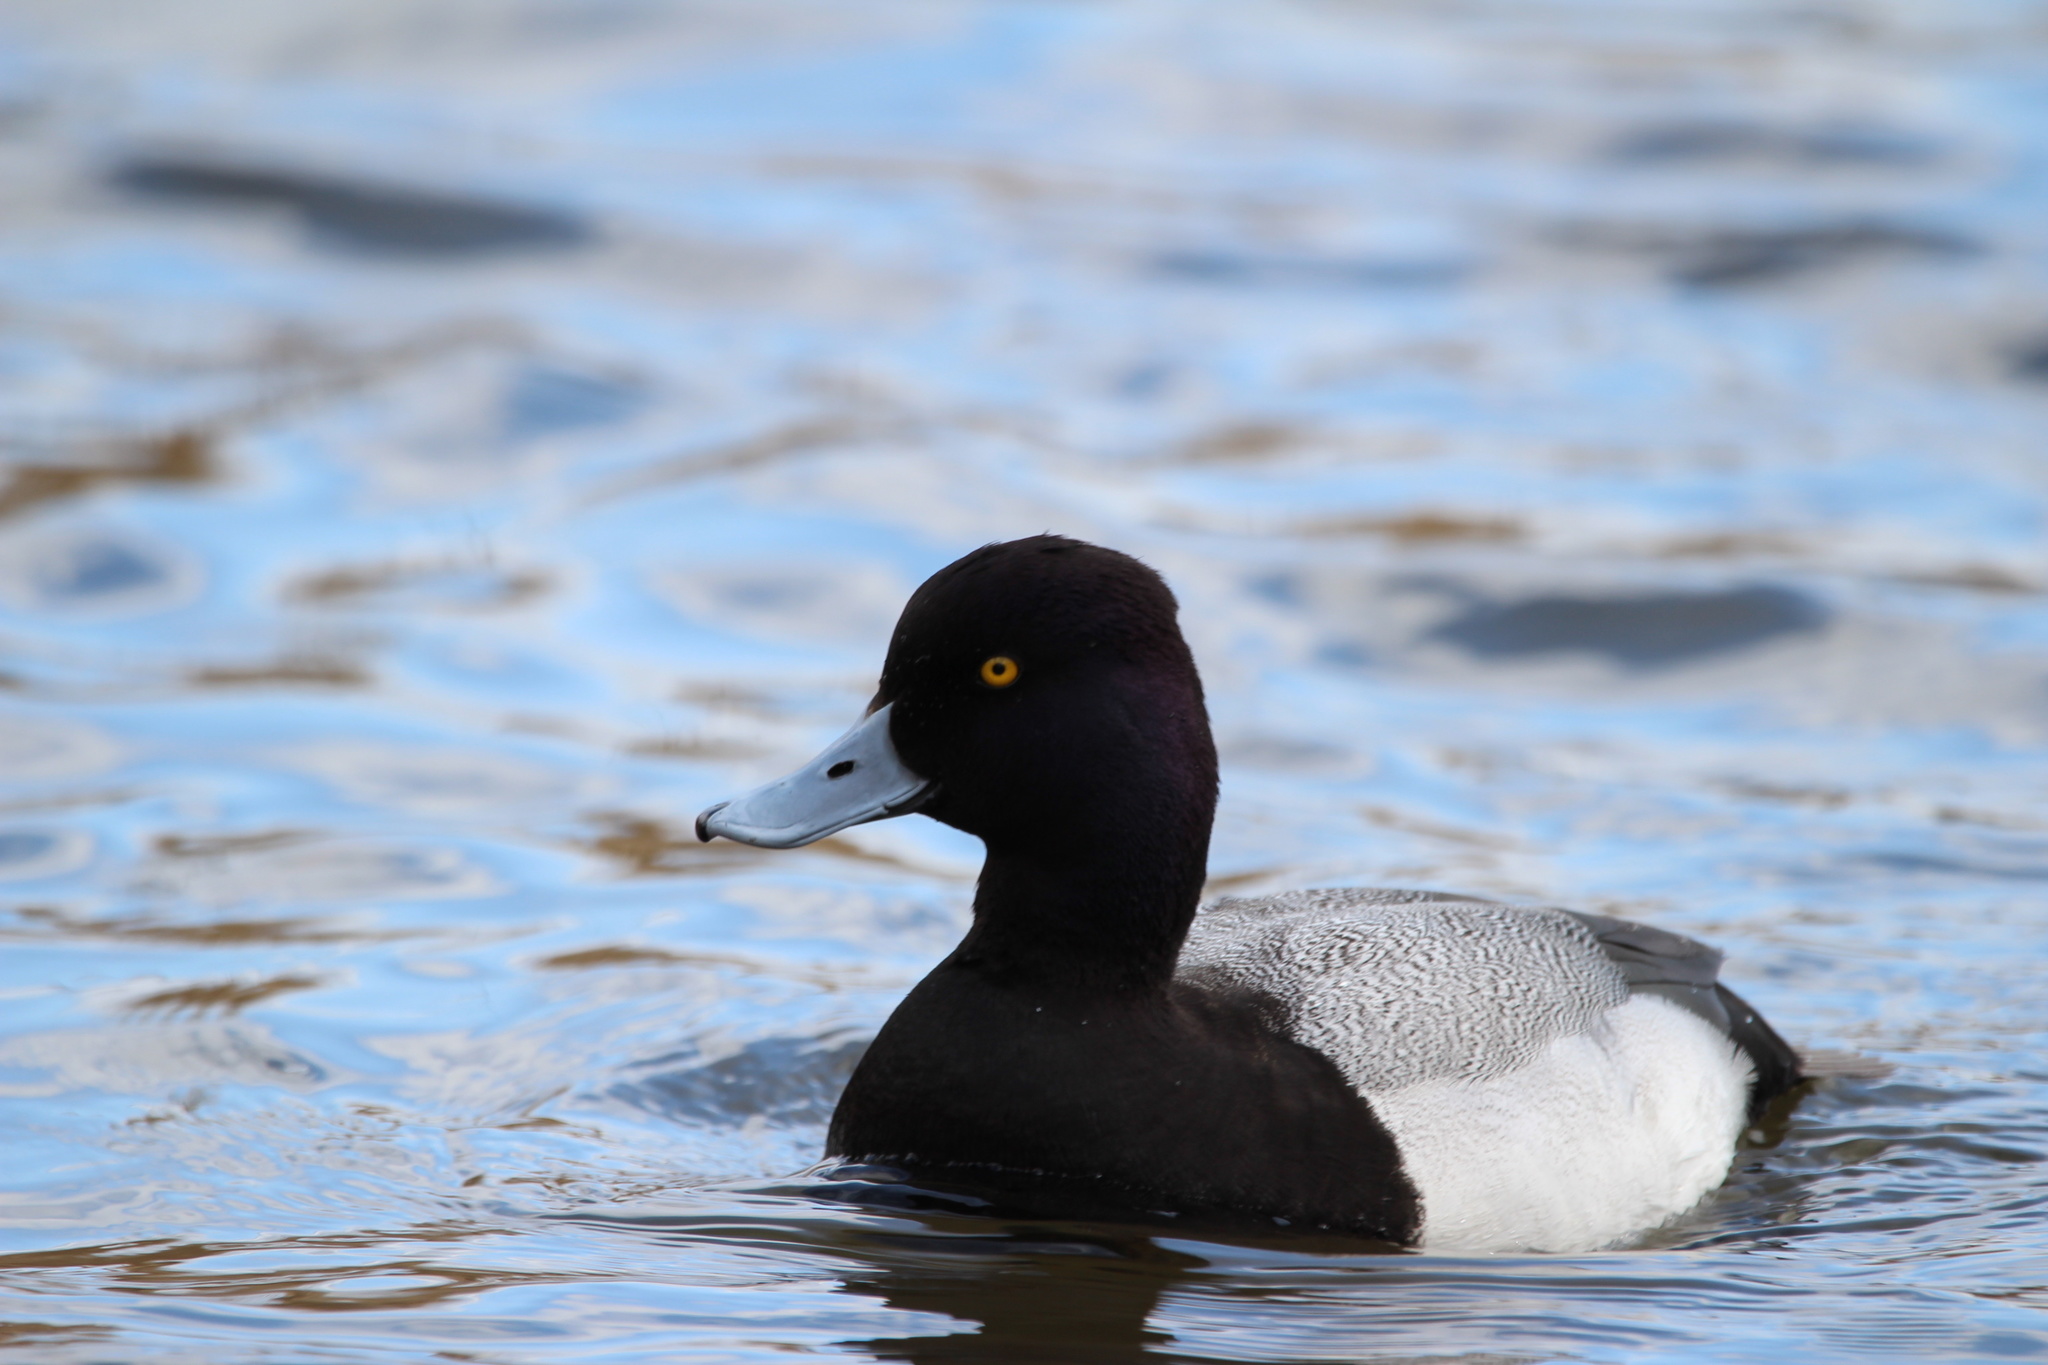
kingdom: Animalia
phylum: Chordata
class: Aves
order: Anseriformes
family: Anatidae
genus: Aythya
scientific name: Aythya affinis
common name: Lesser scaup
